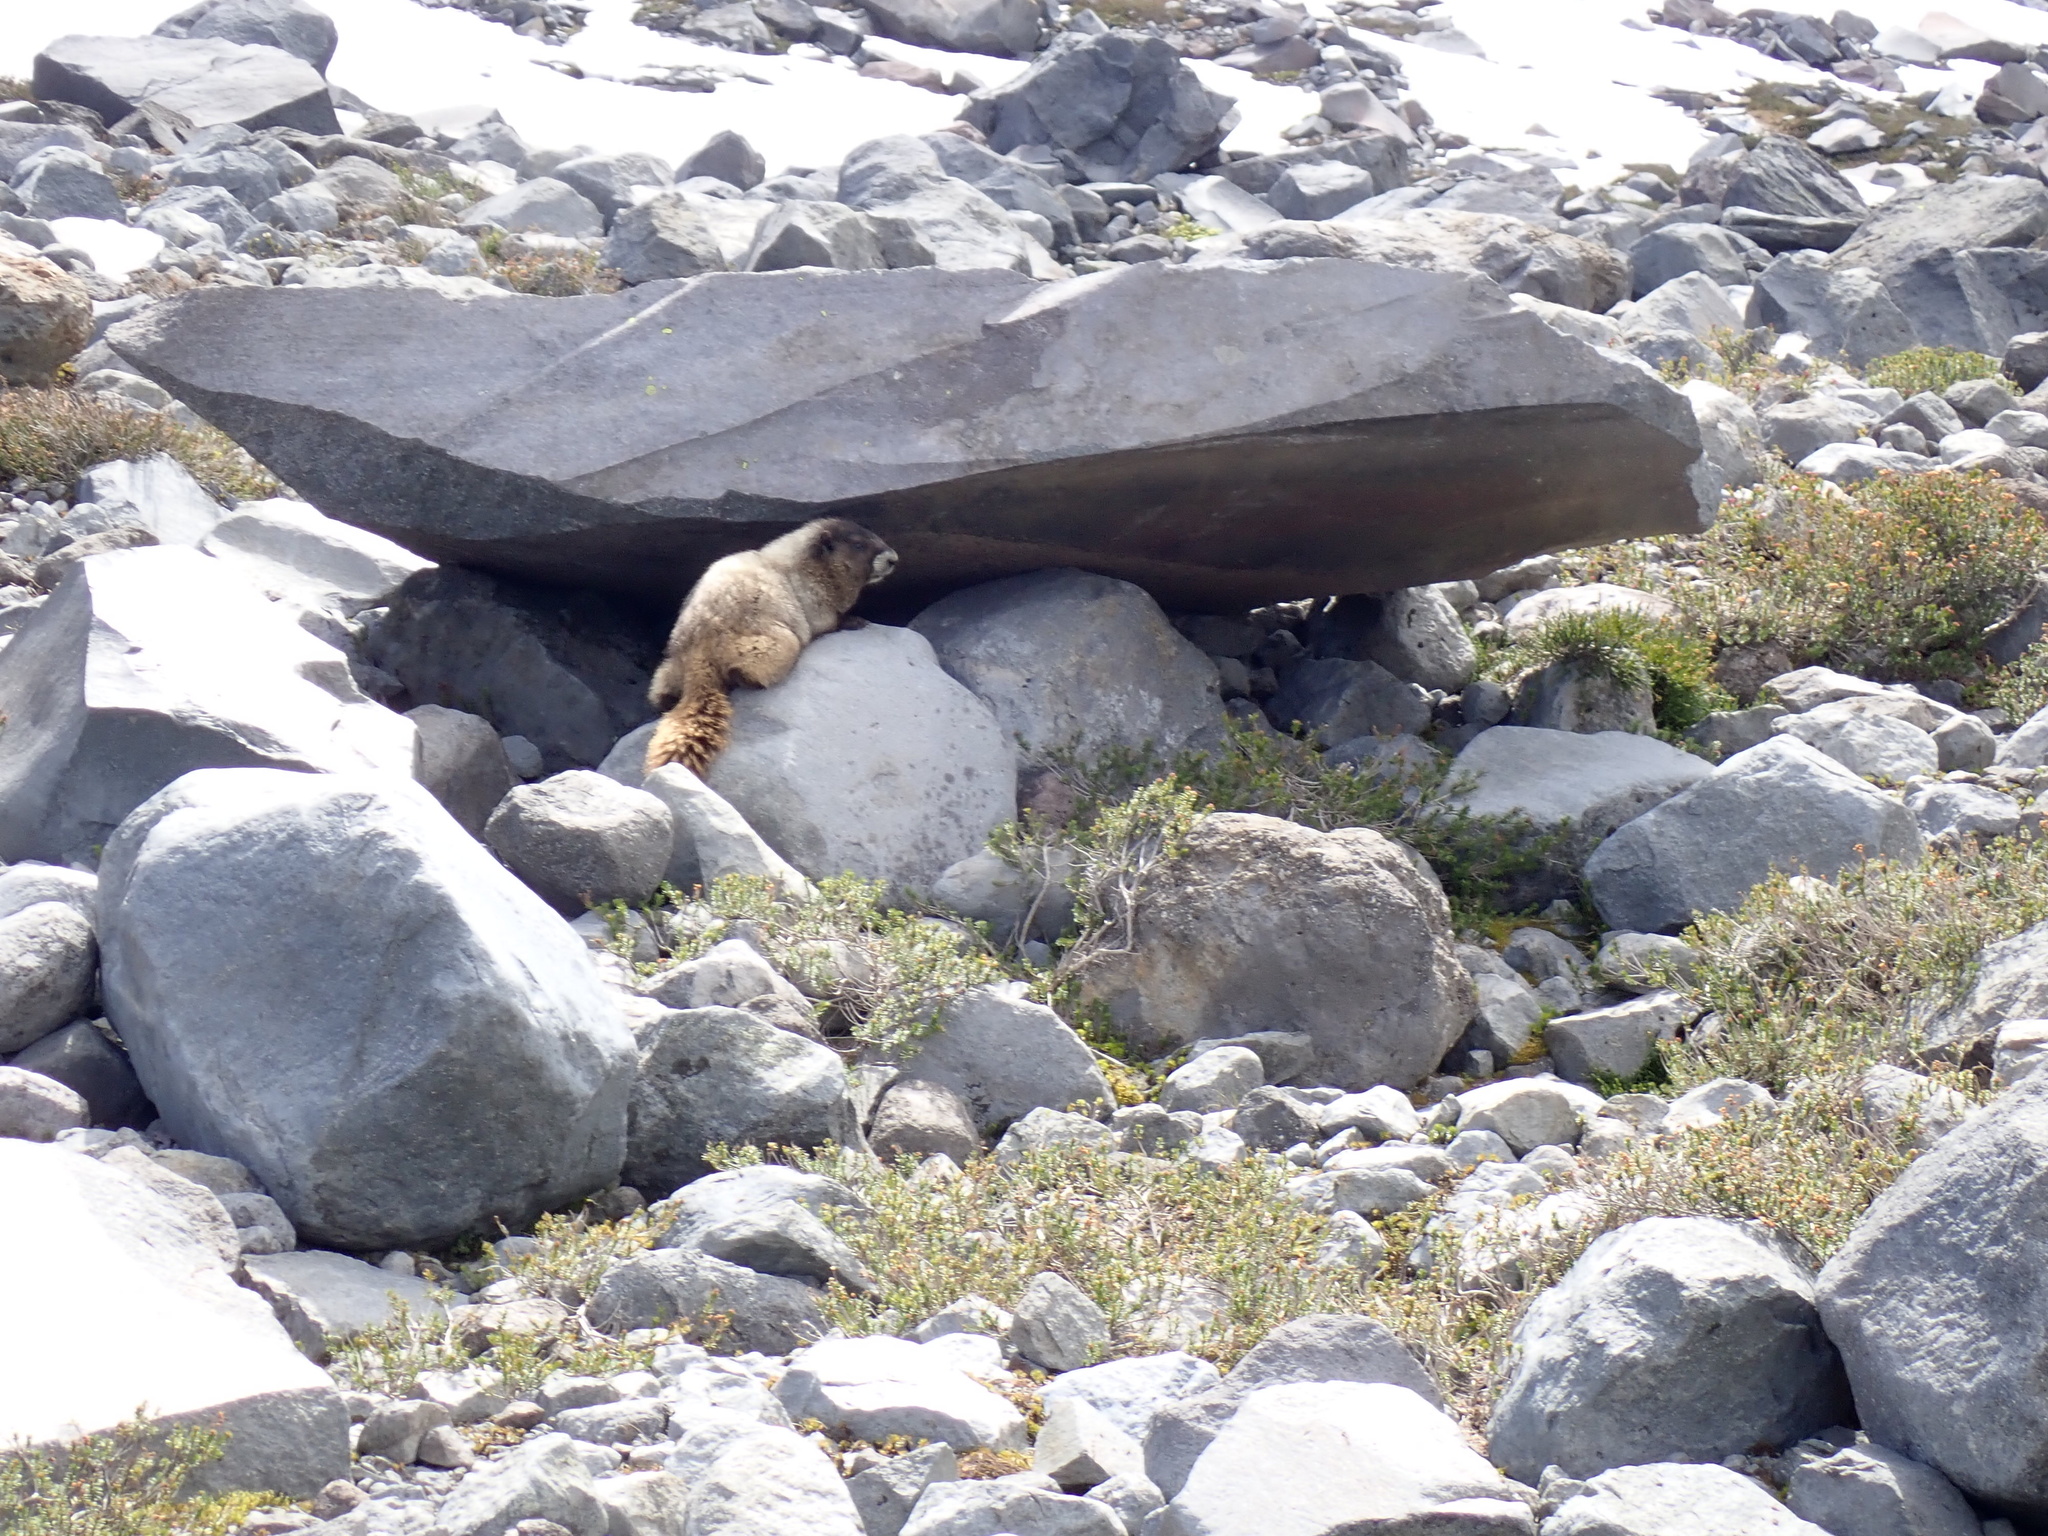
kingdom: Animalia
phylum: Chordata
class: Mammalia
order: Rodentia
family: Sciuridae
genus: Marmota
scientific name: Marmota caligata
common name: Hoary marmot
